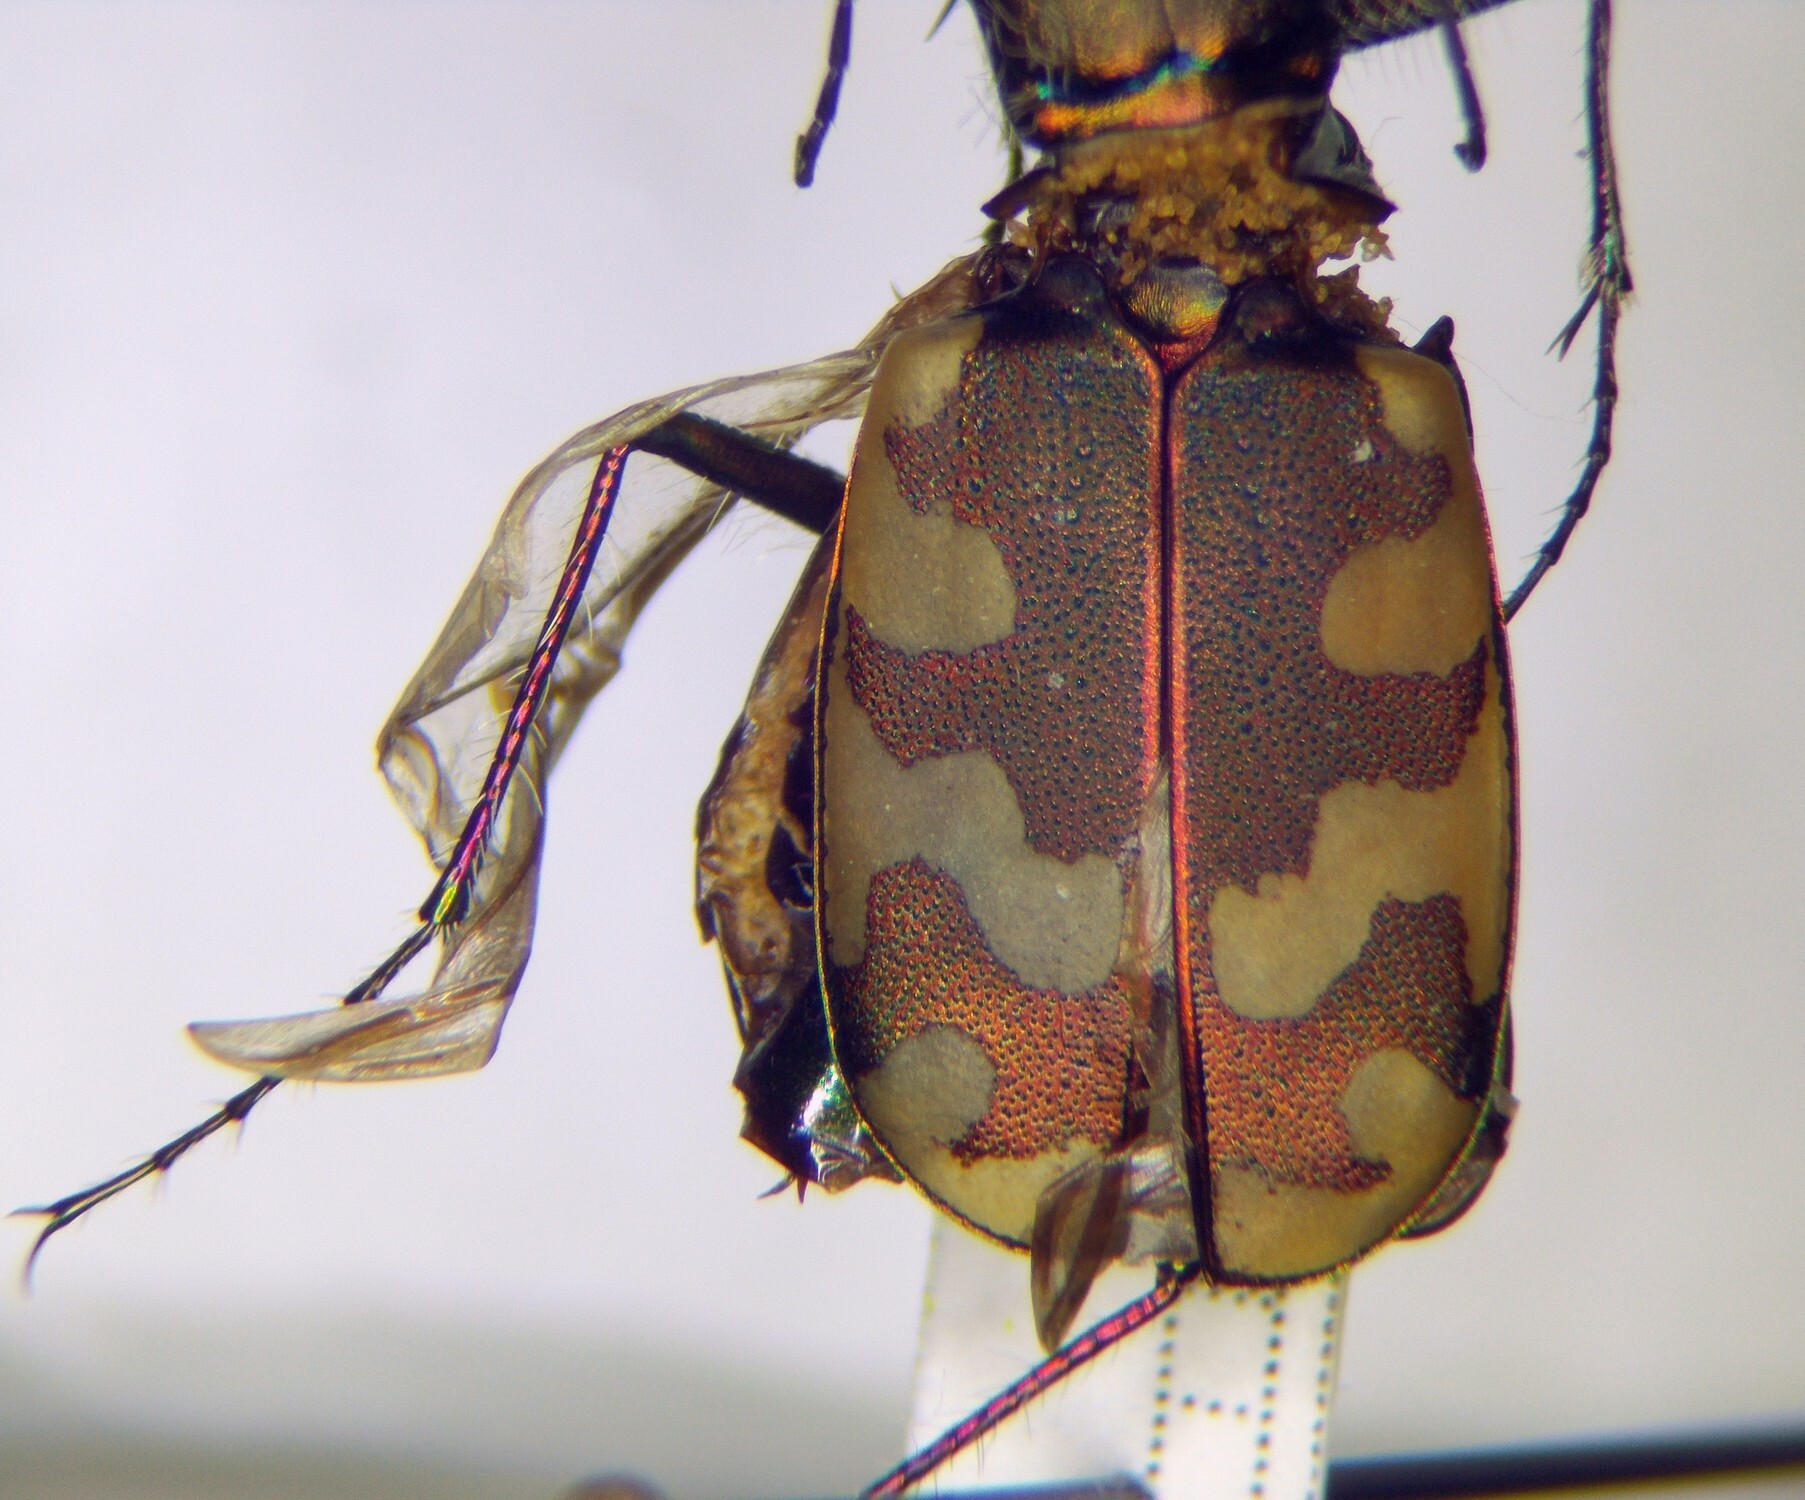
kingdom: Animalia
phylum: Arthropoda
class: Insecta
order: Coleoptera
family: Carabidae
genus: Cicindela
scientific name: Cicindela sahlbergii
